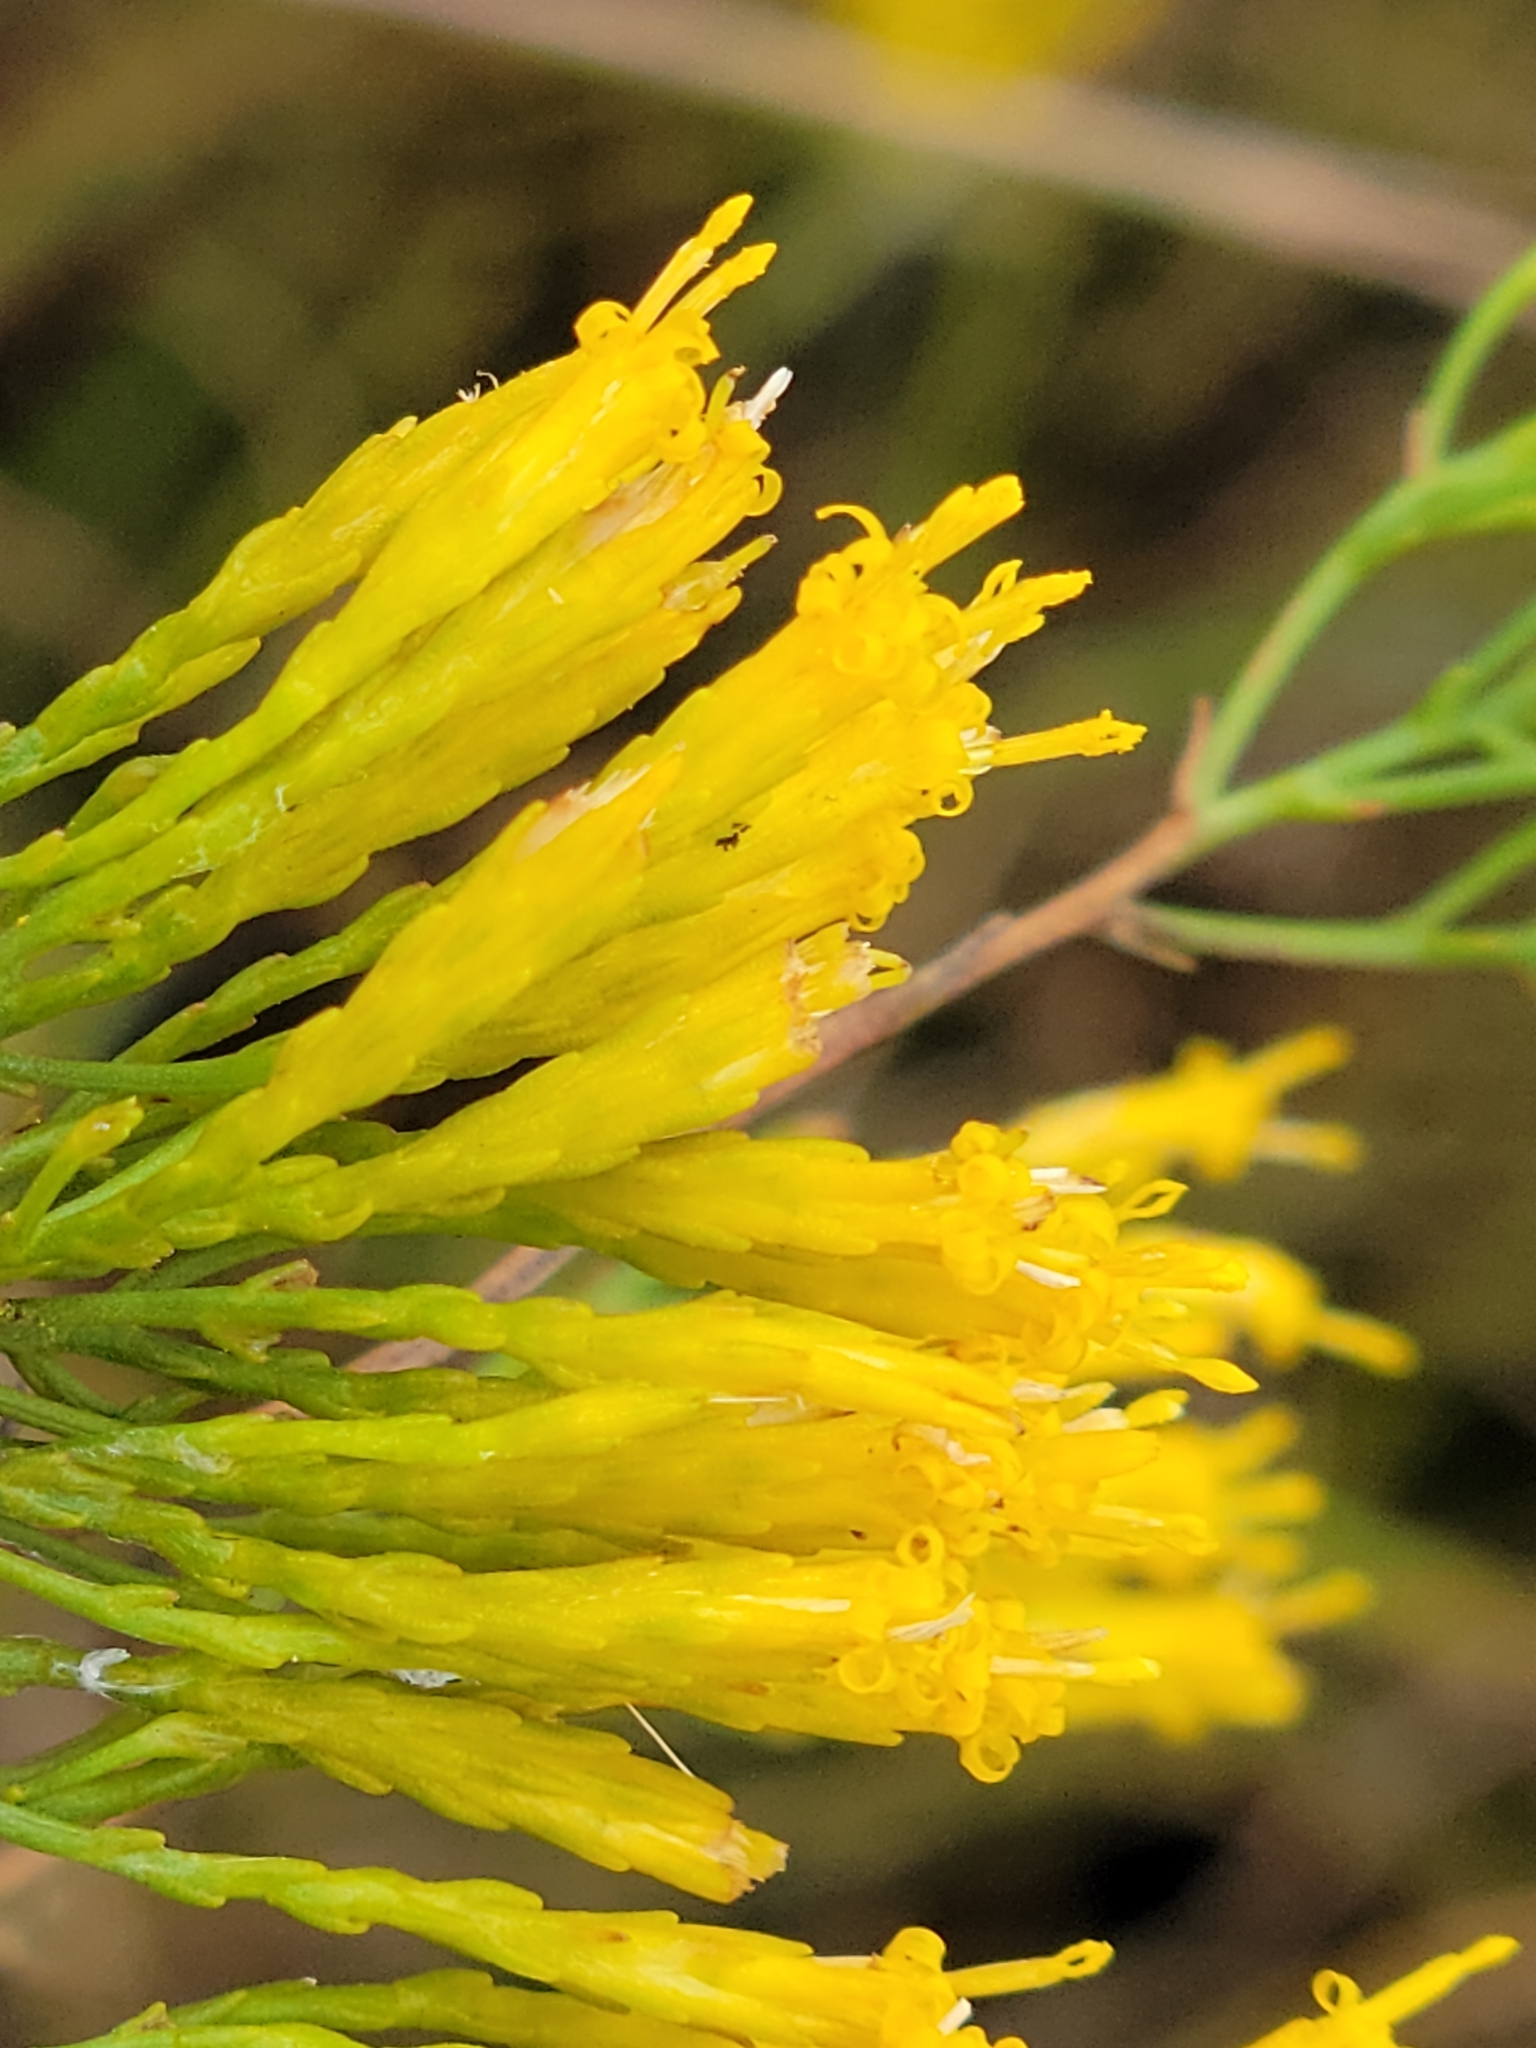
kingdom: Plantae
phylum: Tracheophyta
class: Magnoliopsida
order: Asterales
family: Asteraceae
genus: Bigelowia
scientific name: Bigelowia australis
